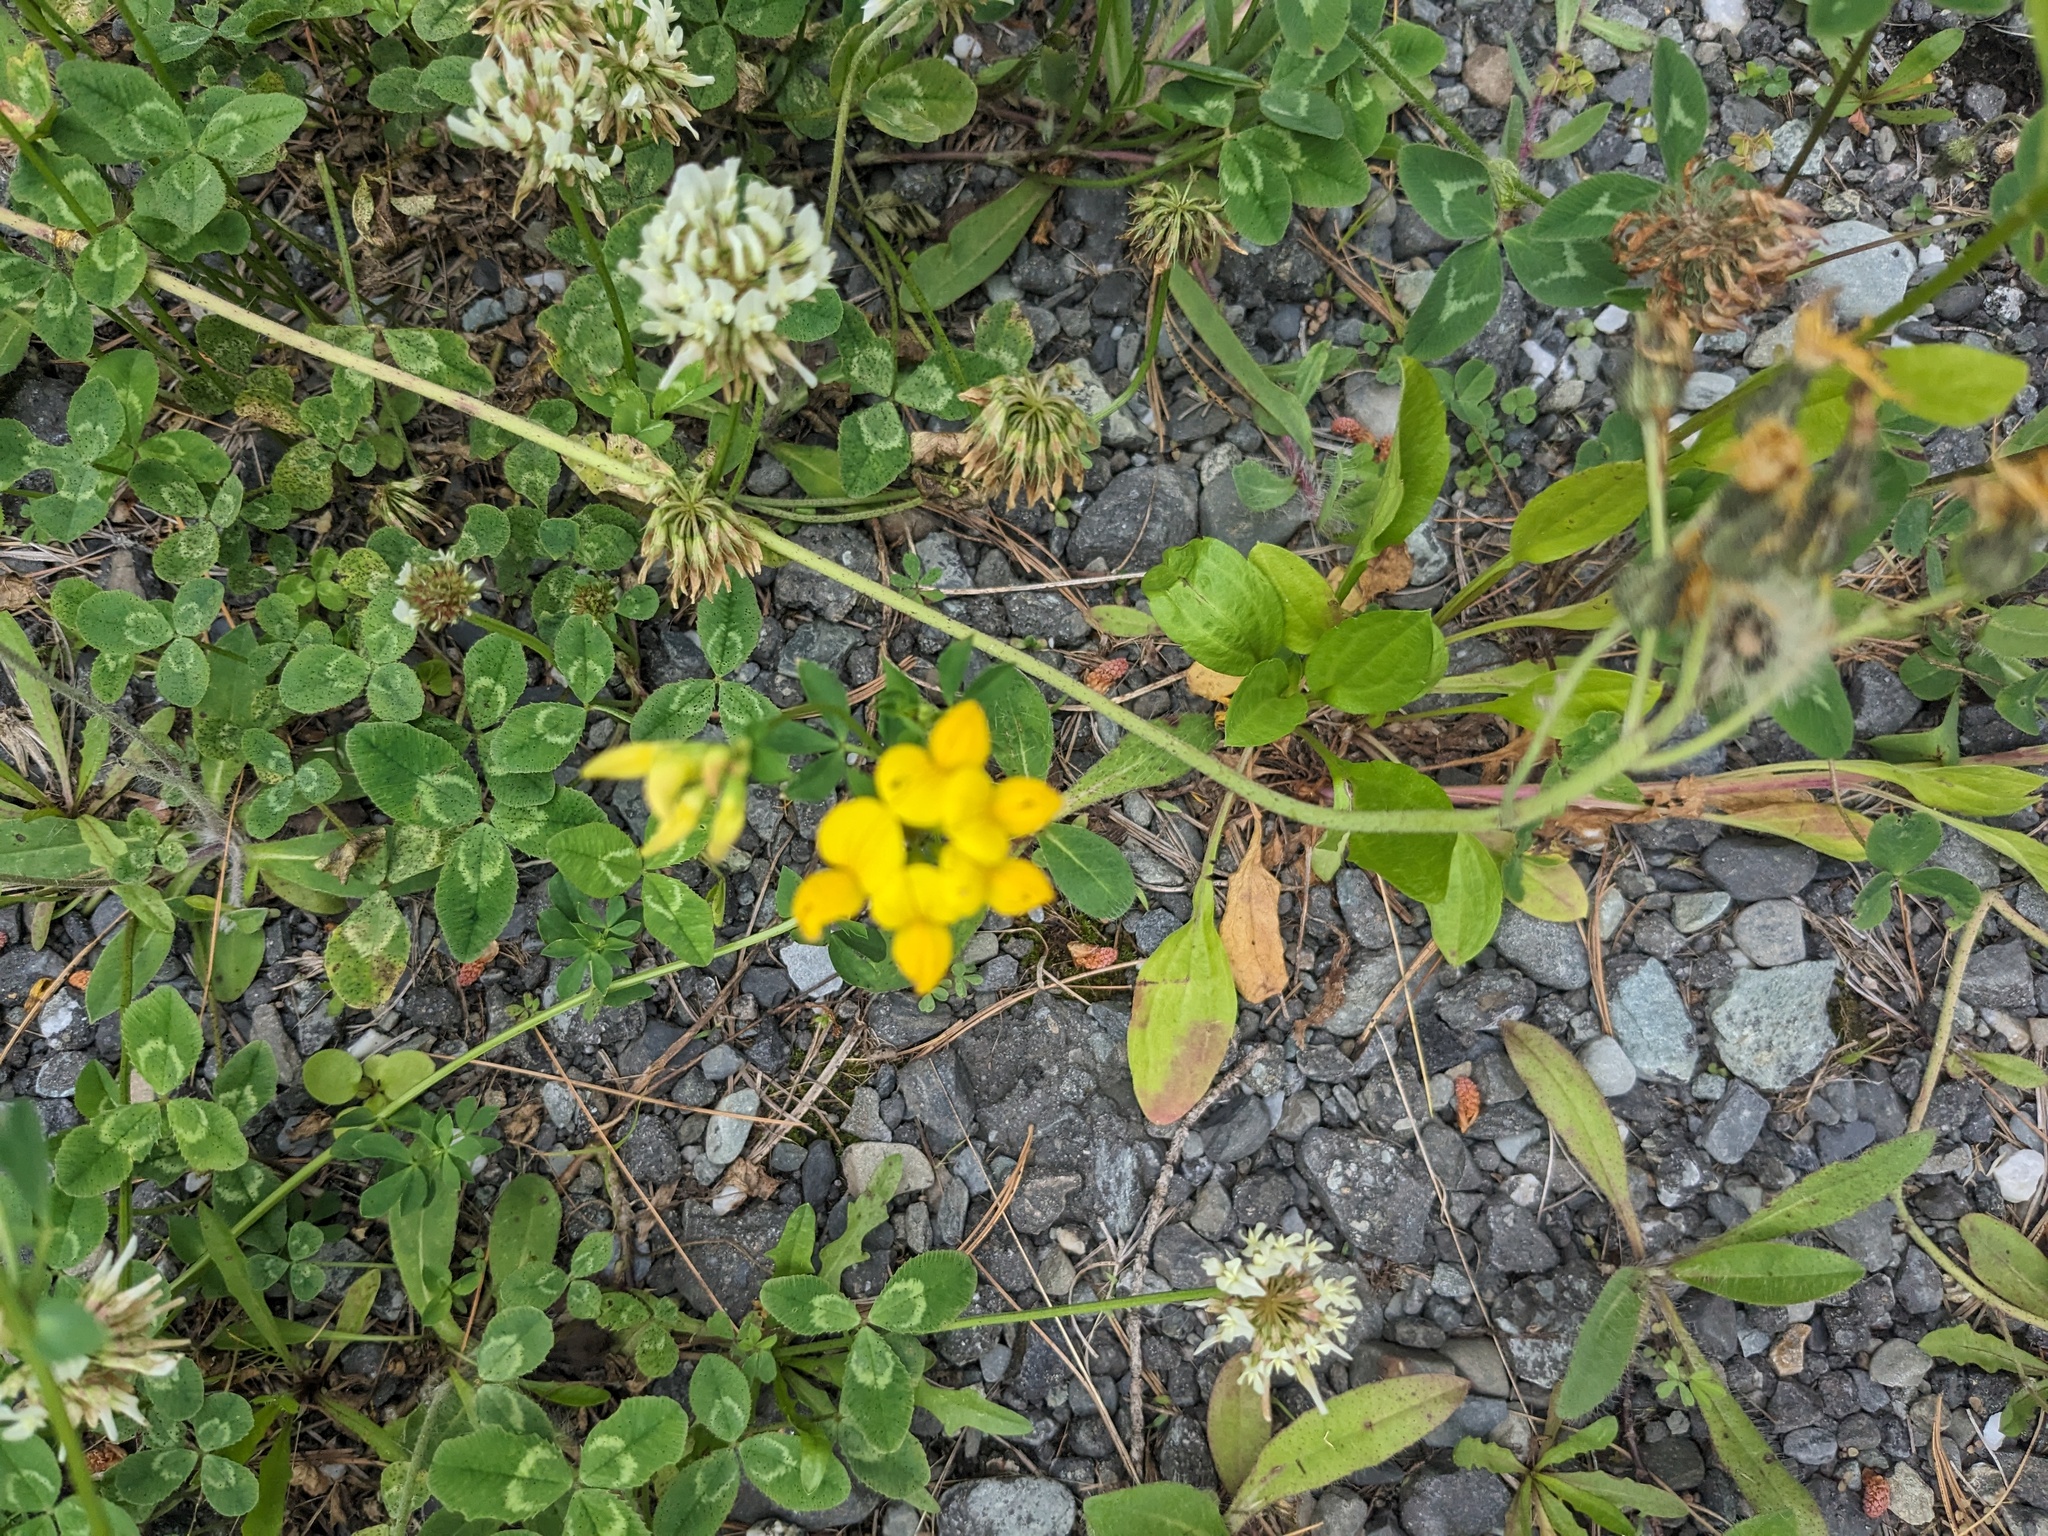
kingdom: Plantae
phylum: Tracheophyta
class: Magnoliopsida
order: Fabales
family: Fabaceae
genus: Lotus
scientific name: Lotus corniculatus
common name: Common bird's-foot-trefoil
